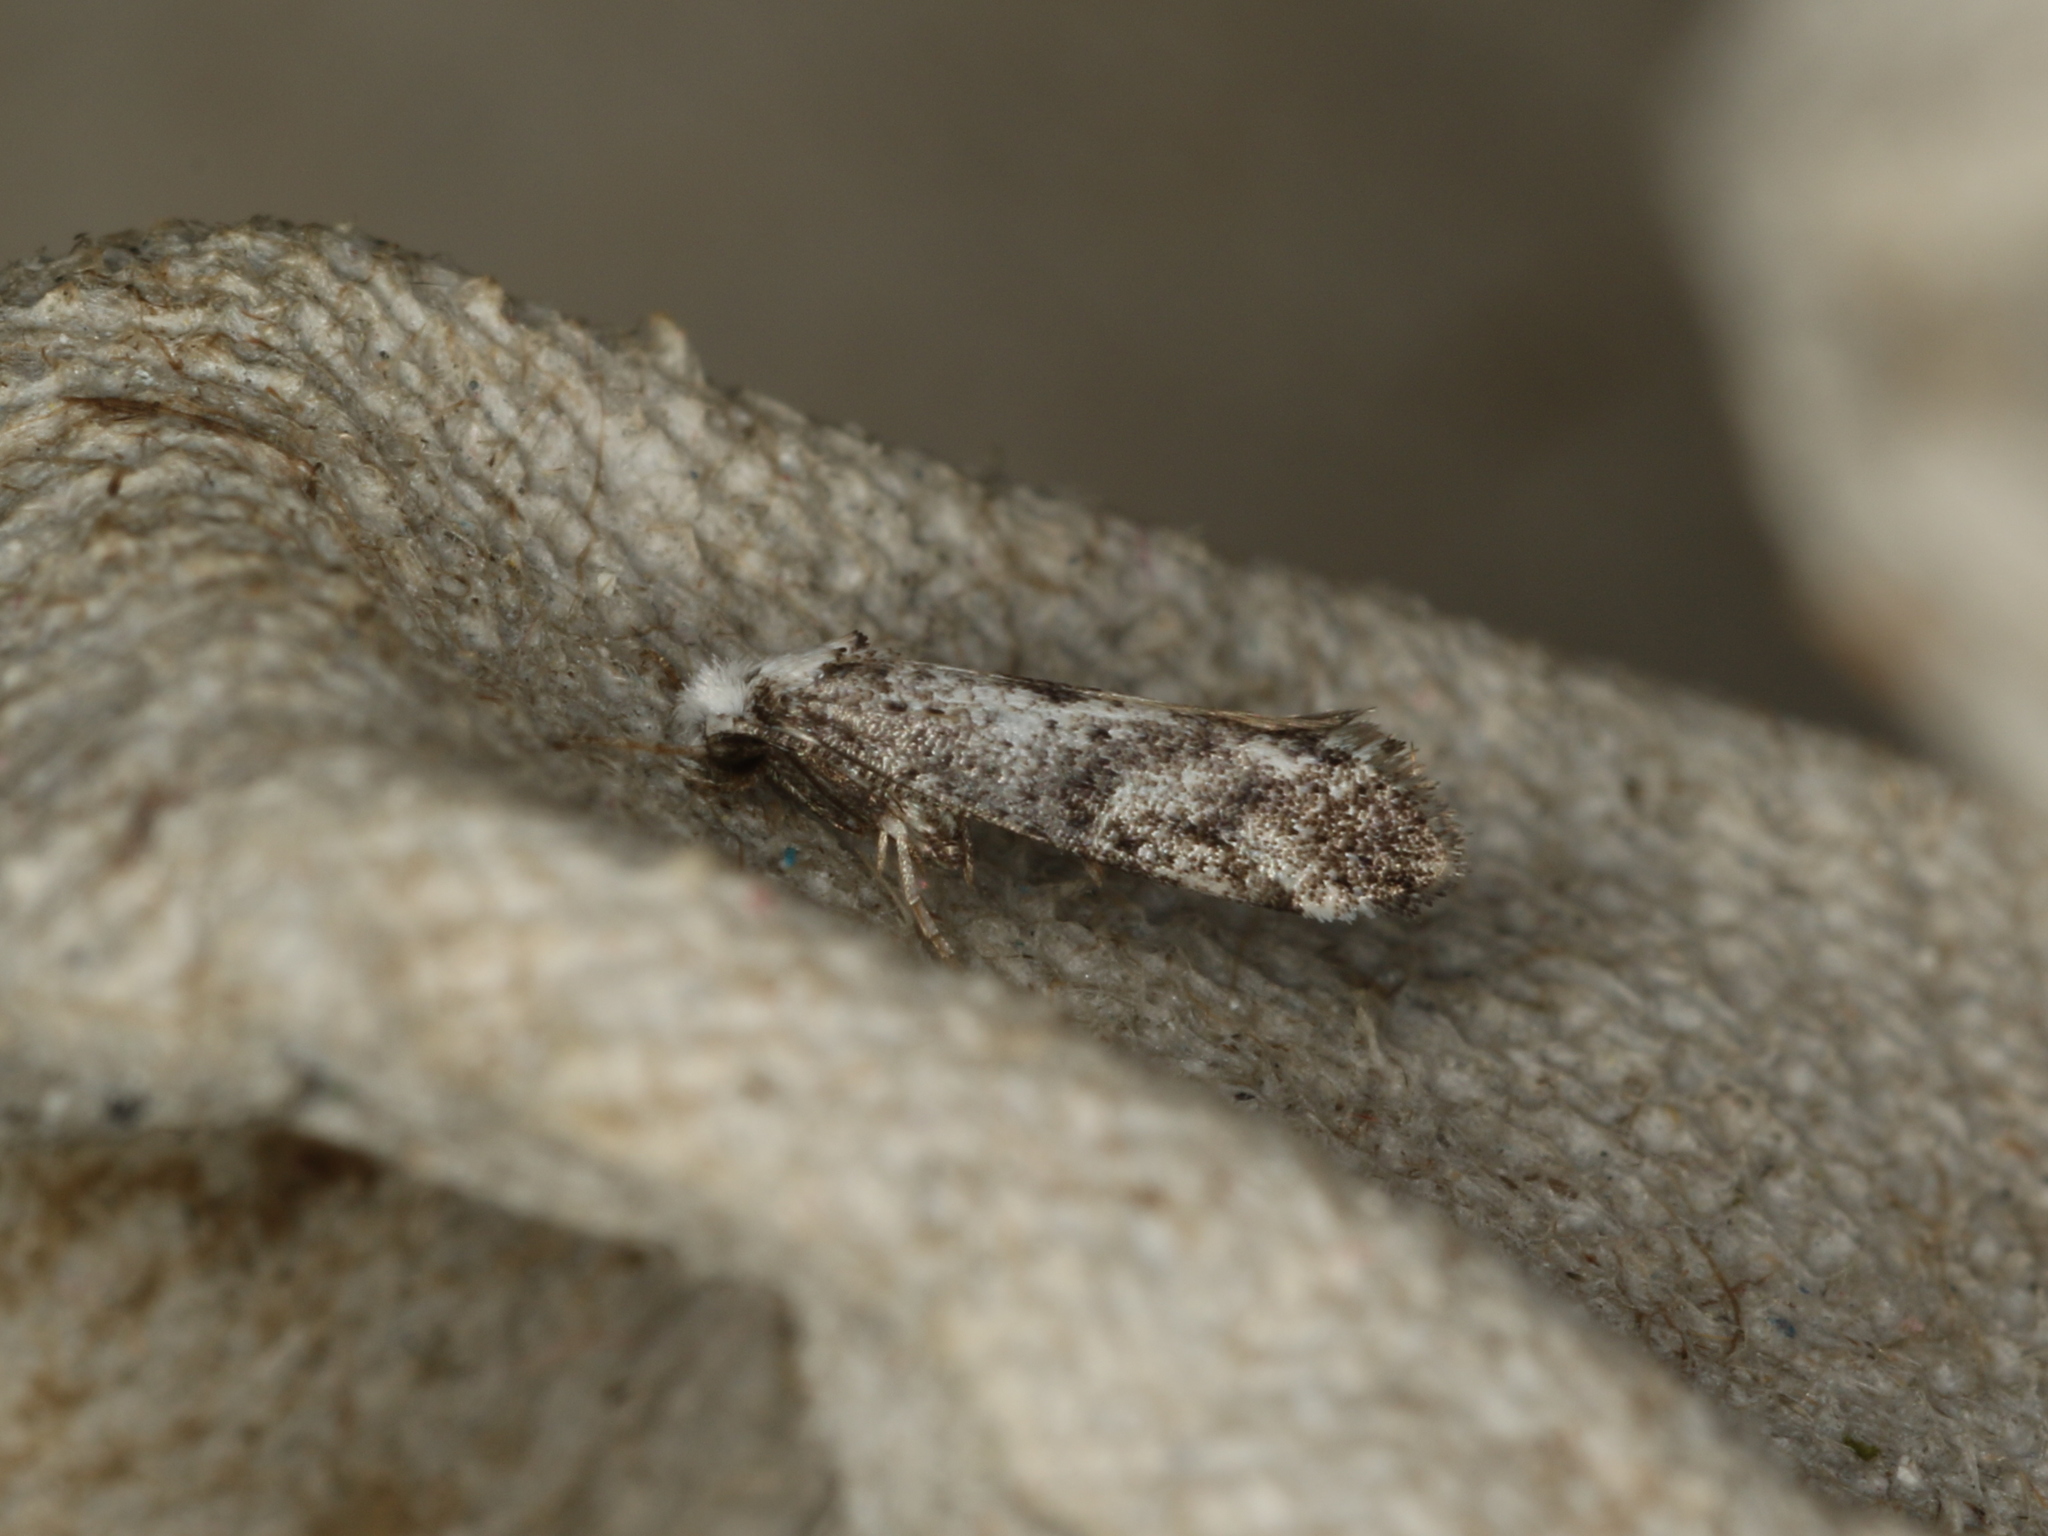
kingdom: Animalia
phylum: Arthropoda
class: Insecta
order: Lepidoptera
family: Yponomeutidae
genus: Paraswammerdamia
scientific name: Paraswammerdamia albicapitella
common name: White-headed ermel
